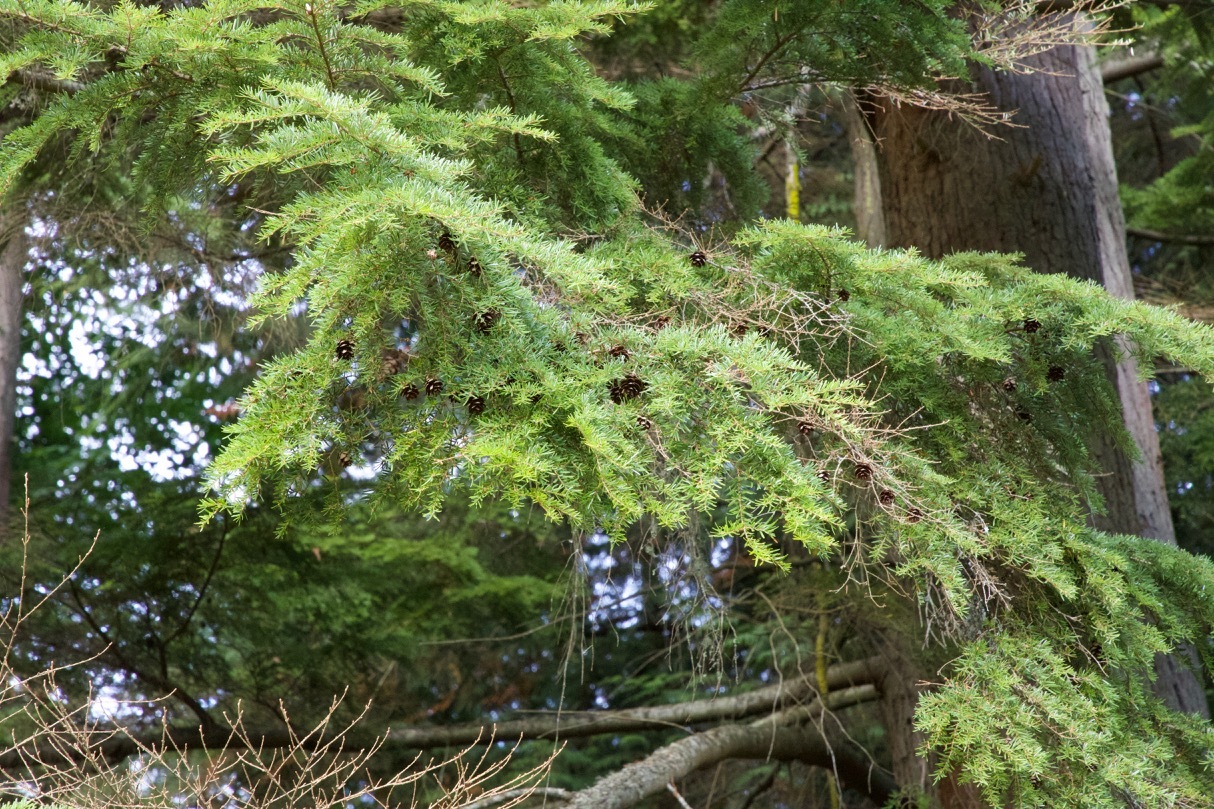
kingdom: Plantae
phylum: Tracheophyta
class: Pinopsida
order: Pinales
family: Pinaceae
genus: Tsuga
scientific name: Tsuga heterophylla
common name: Western hemlock
